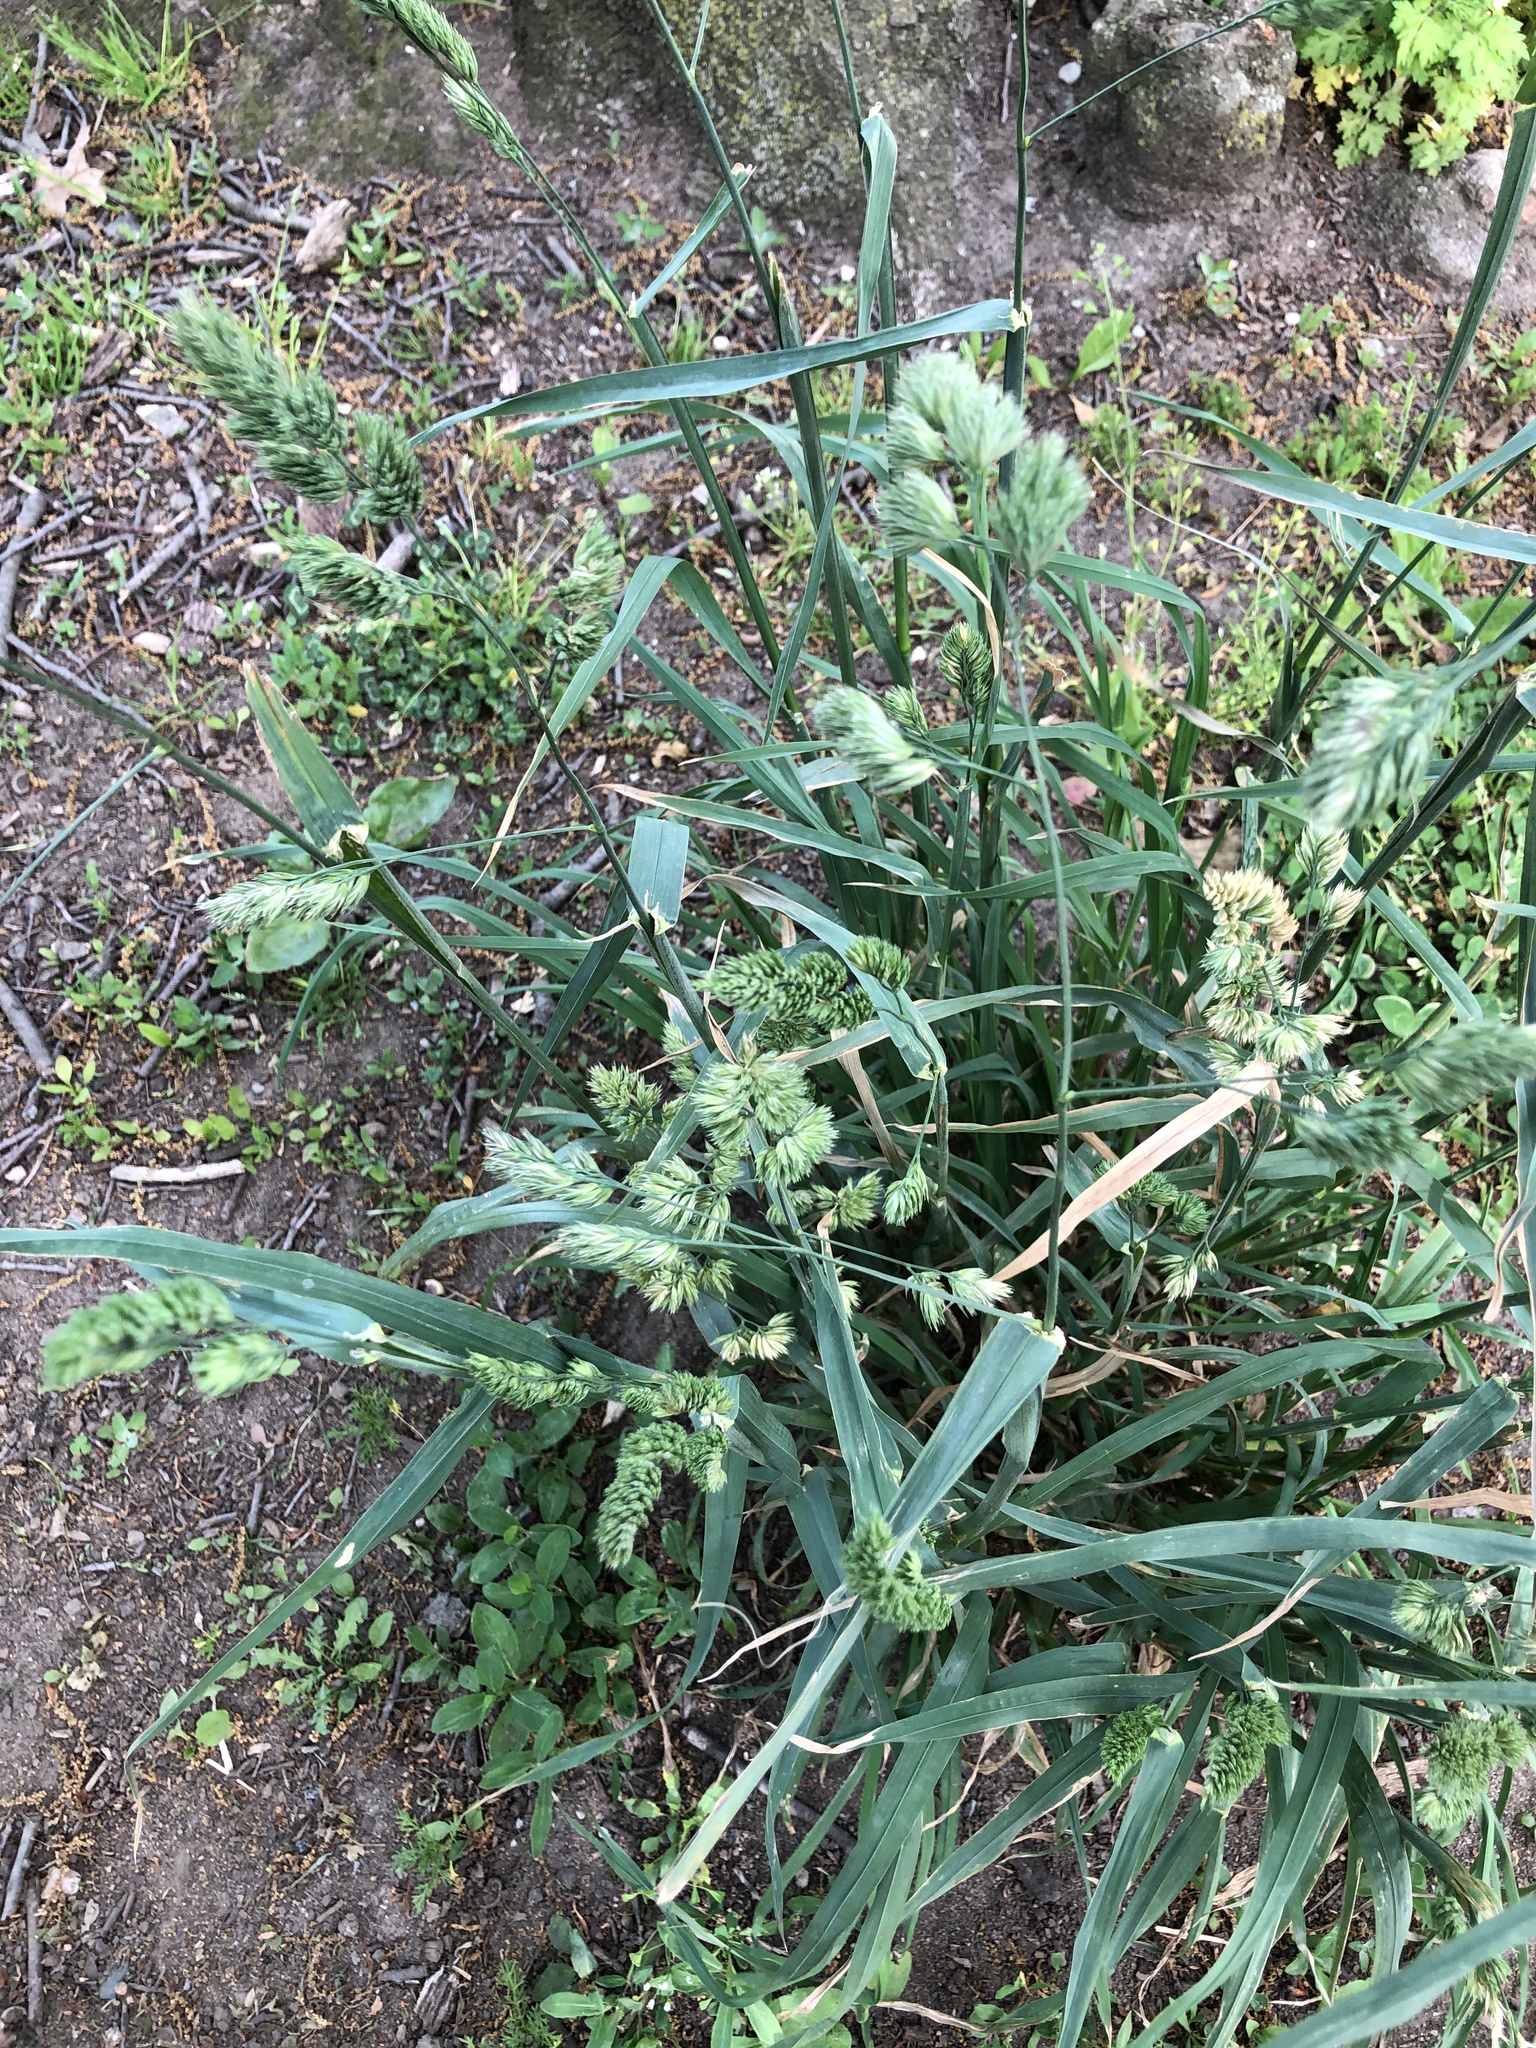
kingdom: Plantae
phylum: Tracheophyta
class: Liliopsida
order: Poales
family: Poaceae
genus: Dactylis
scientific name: Dactylis glomerata
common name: Orchardgrass
